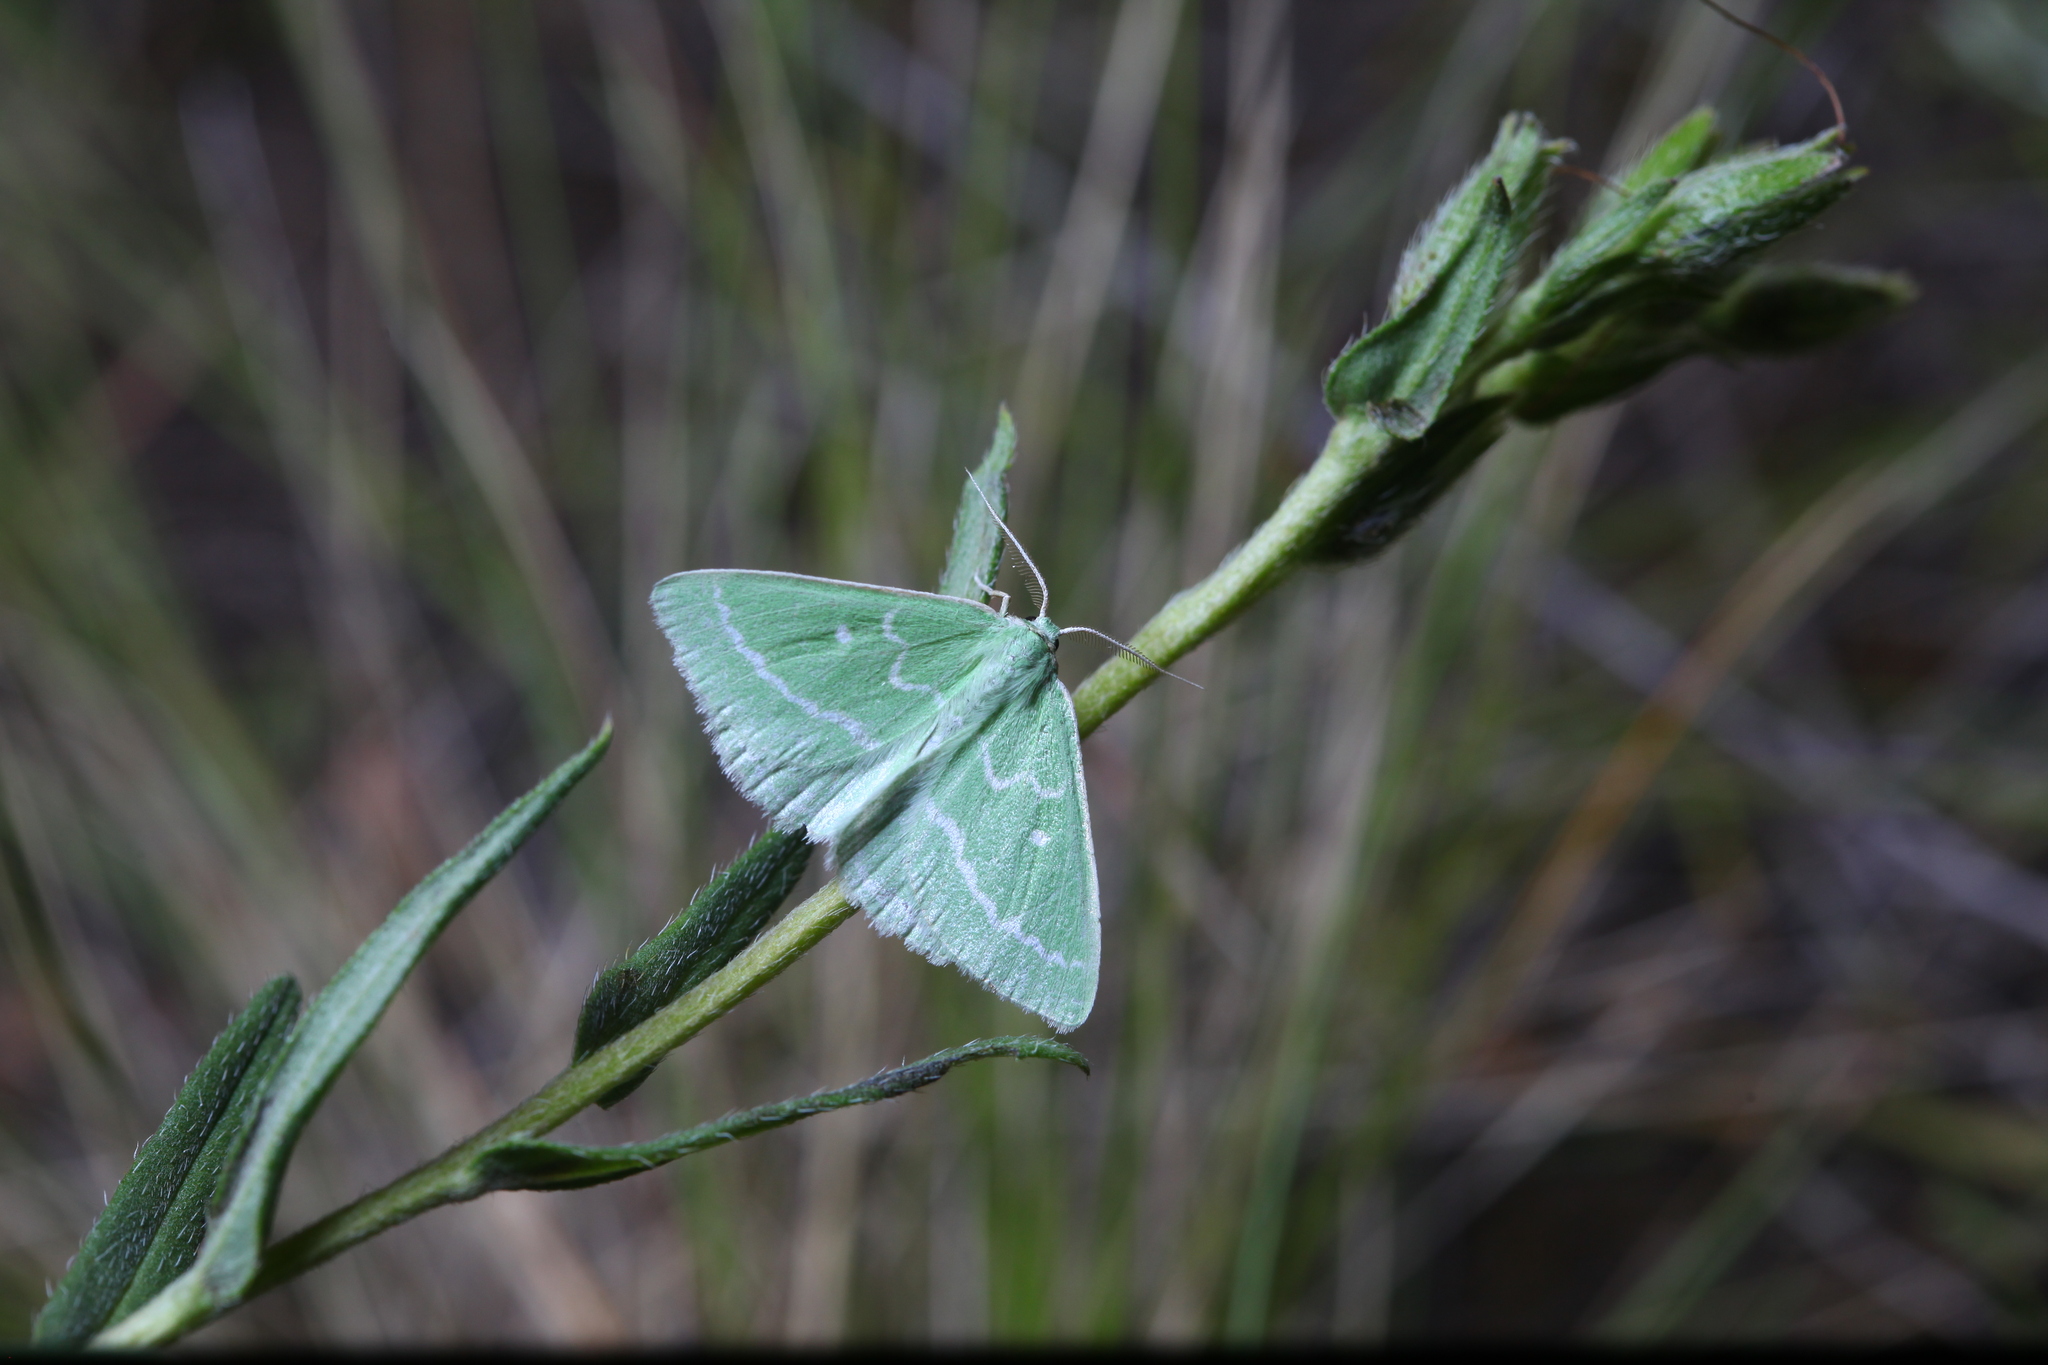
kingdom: Animalia
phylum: Arthropoda
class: Insecta
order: Lepidoptera
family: Geometridae
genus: Thetidia
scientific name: Thetidia smaragdaria
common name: Essex emerald
